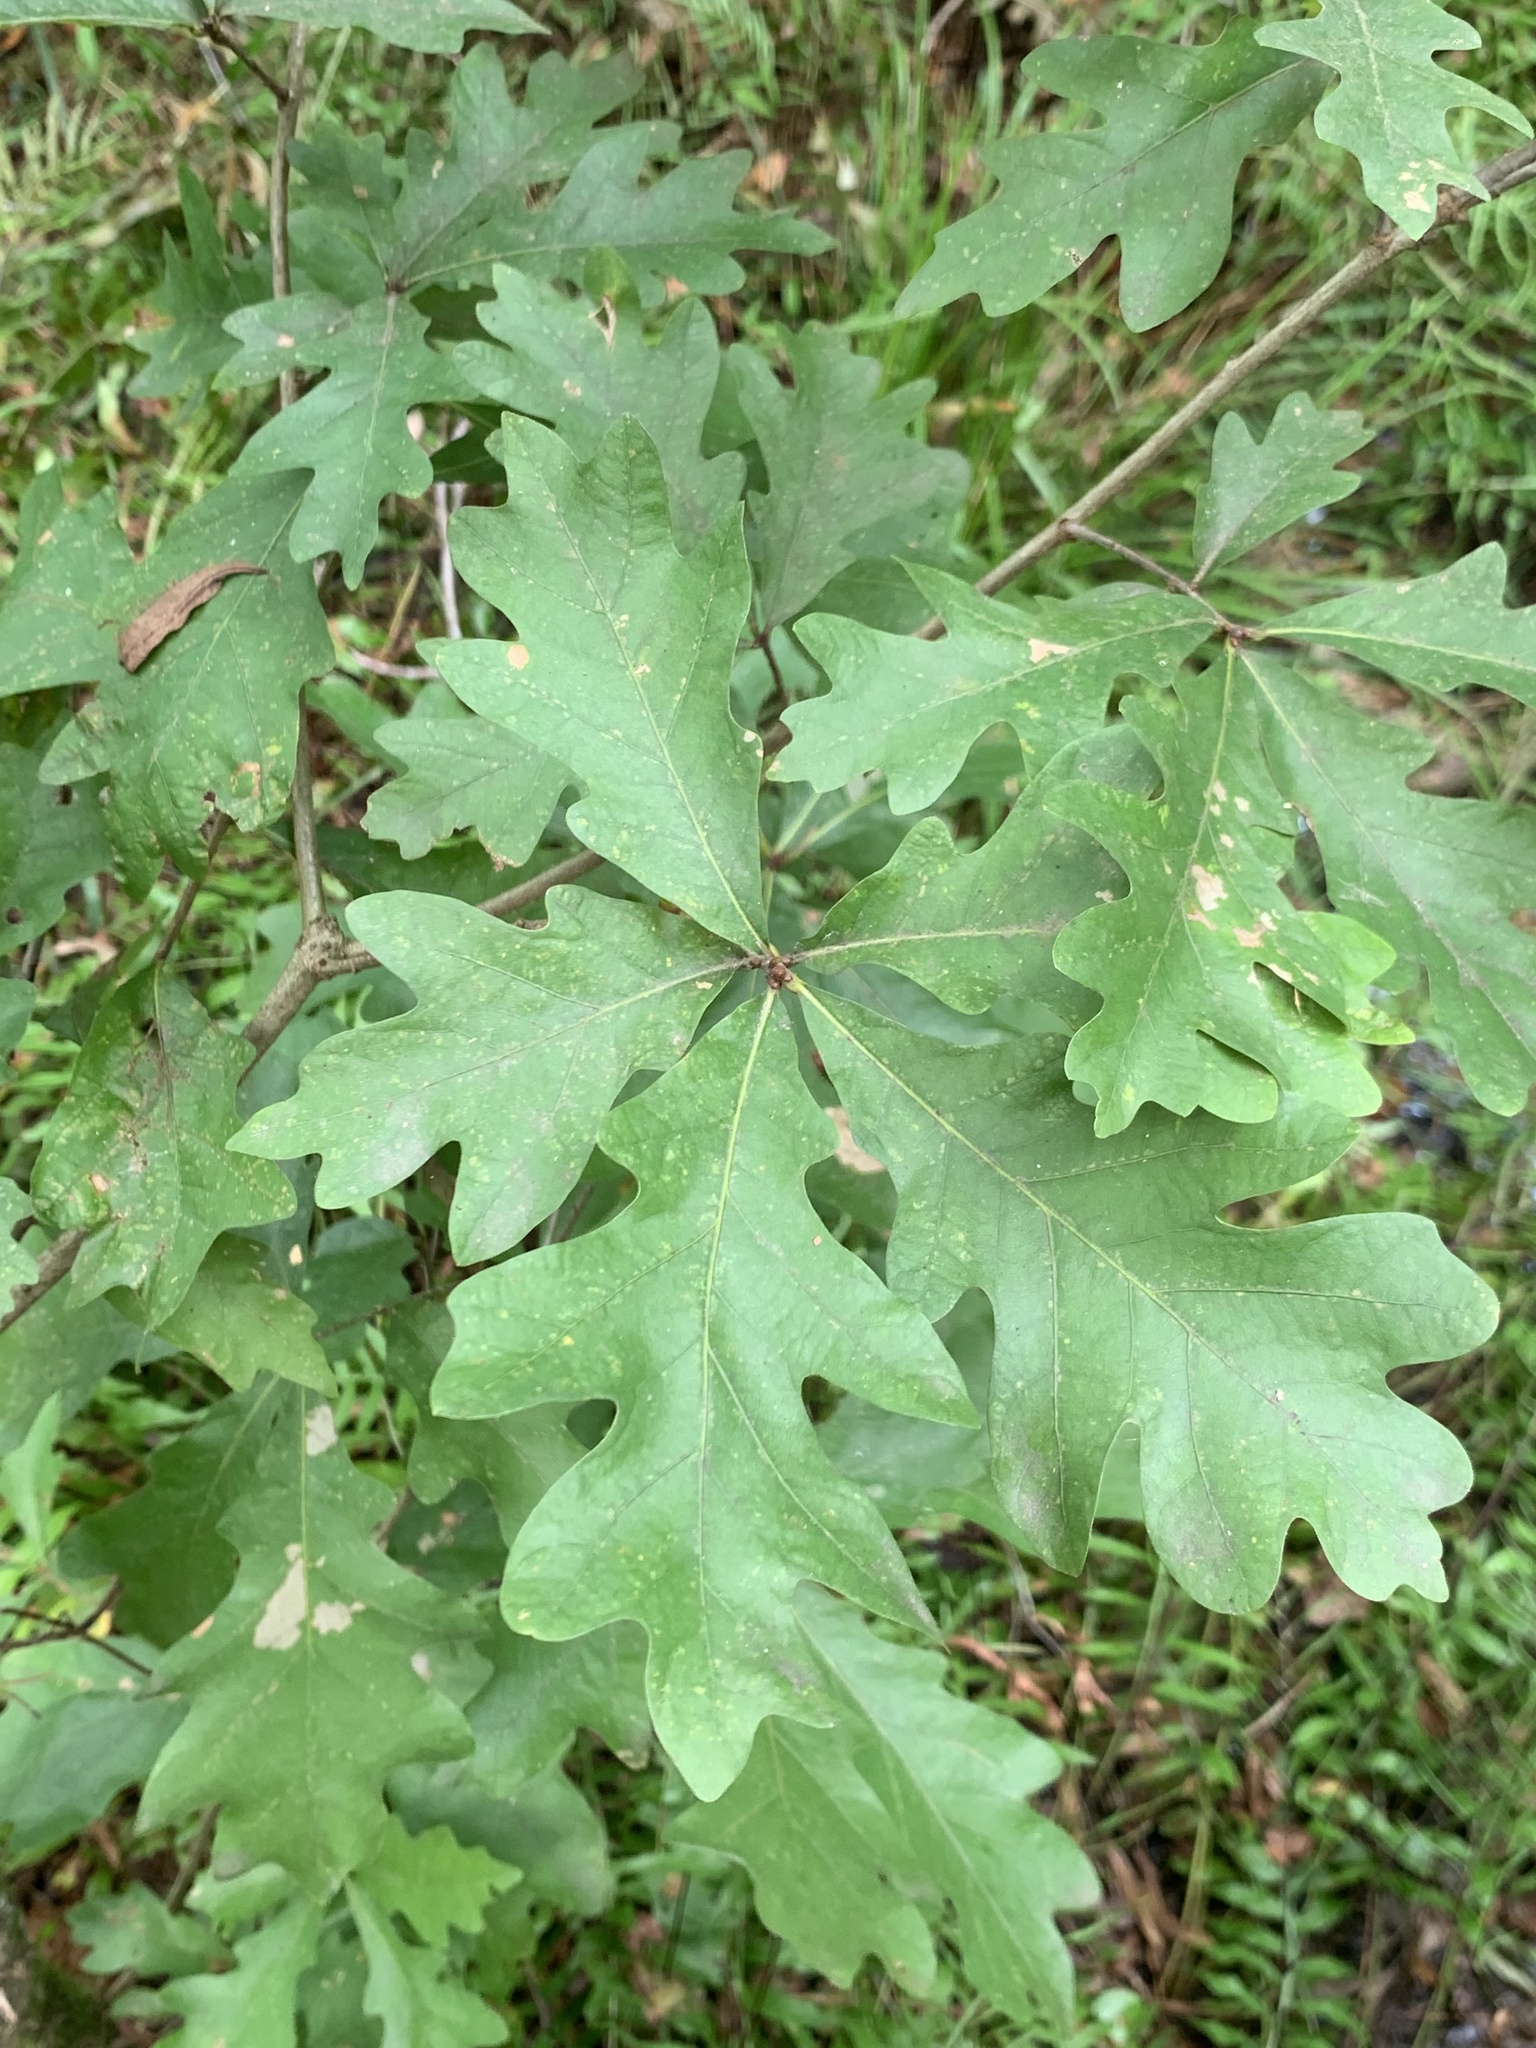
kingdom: Plantae
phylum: Tracheophyta
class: Magnoliopsida
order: Fagales
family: Fagaceae
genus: Quercus
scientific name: Quercus alba
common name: White oak
